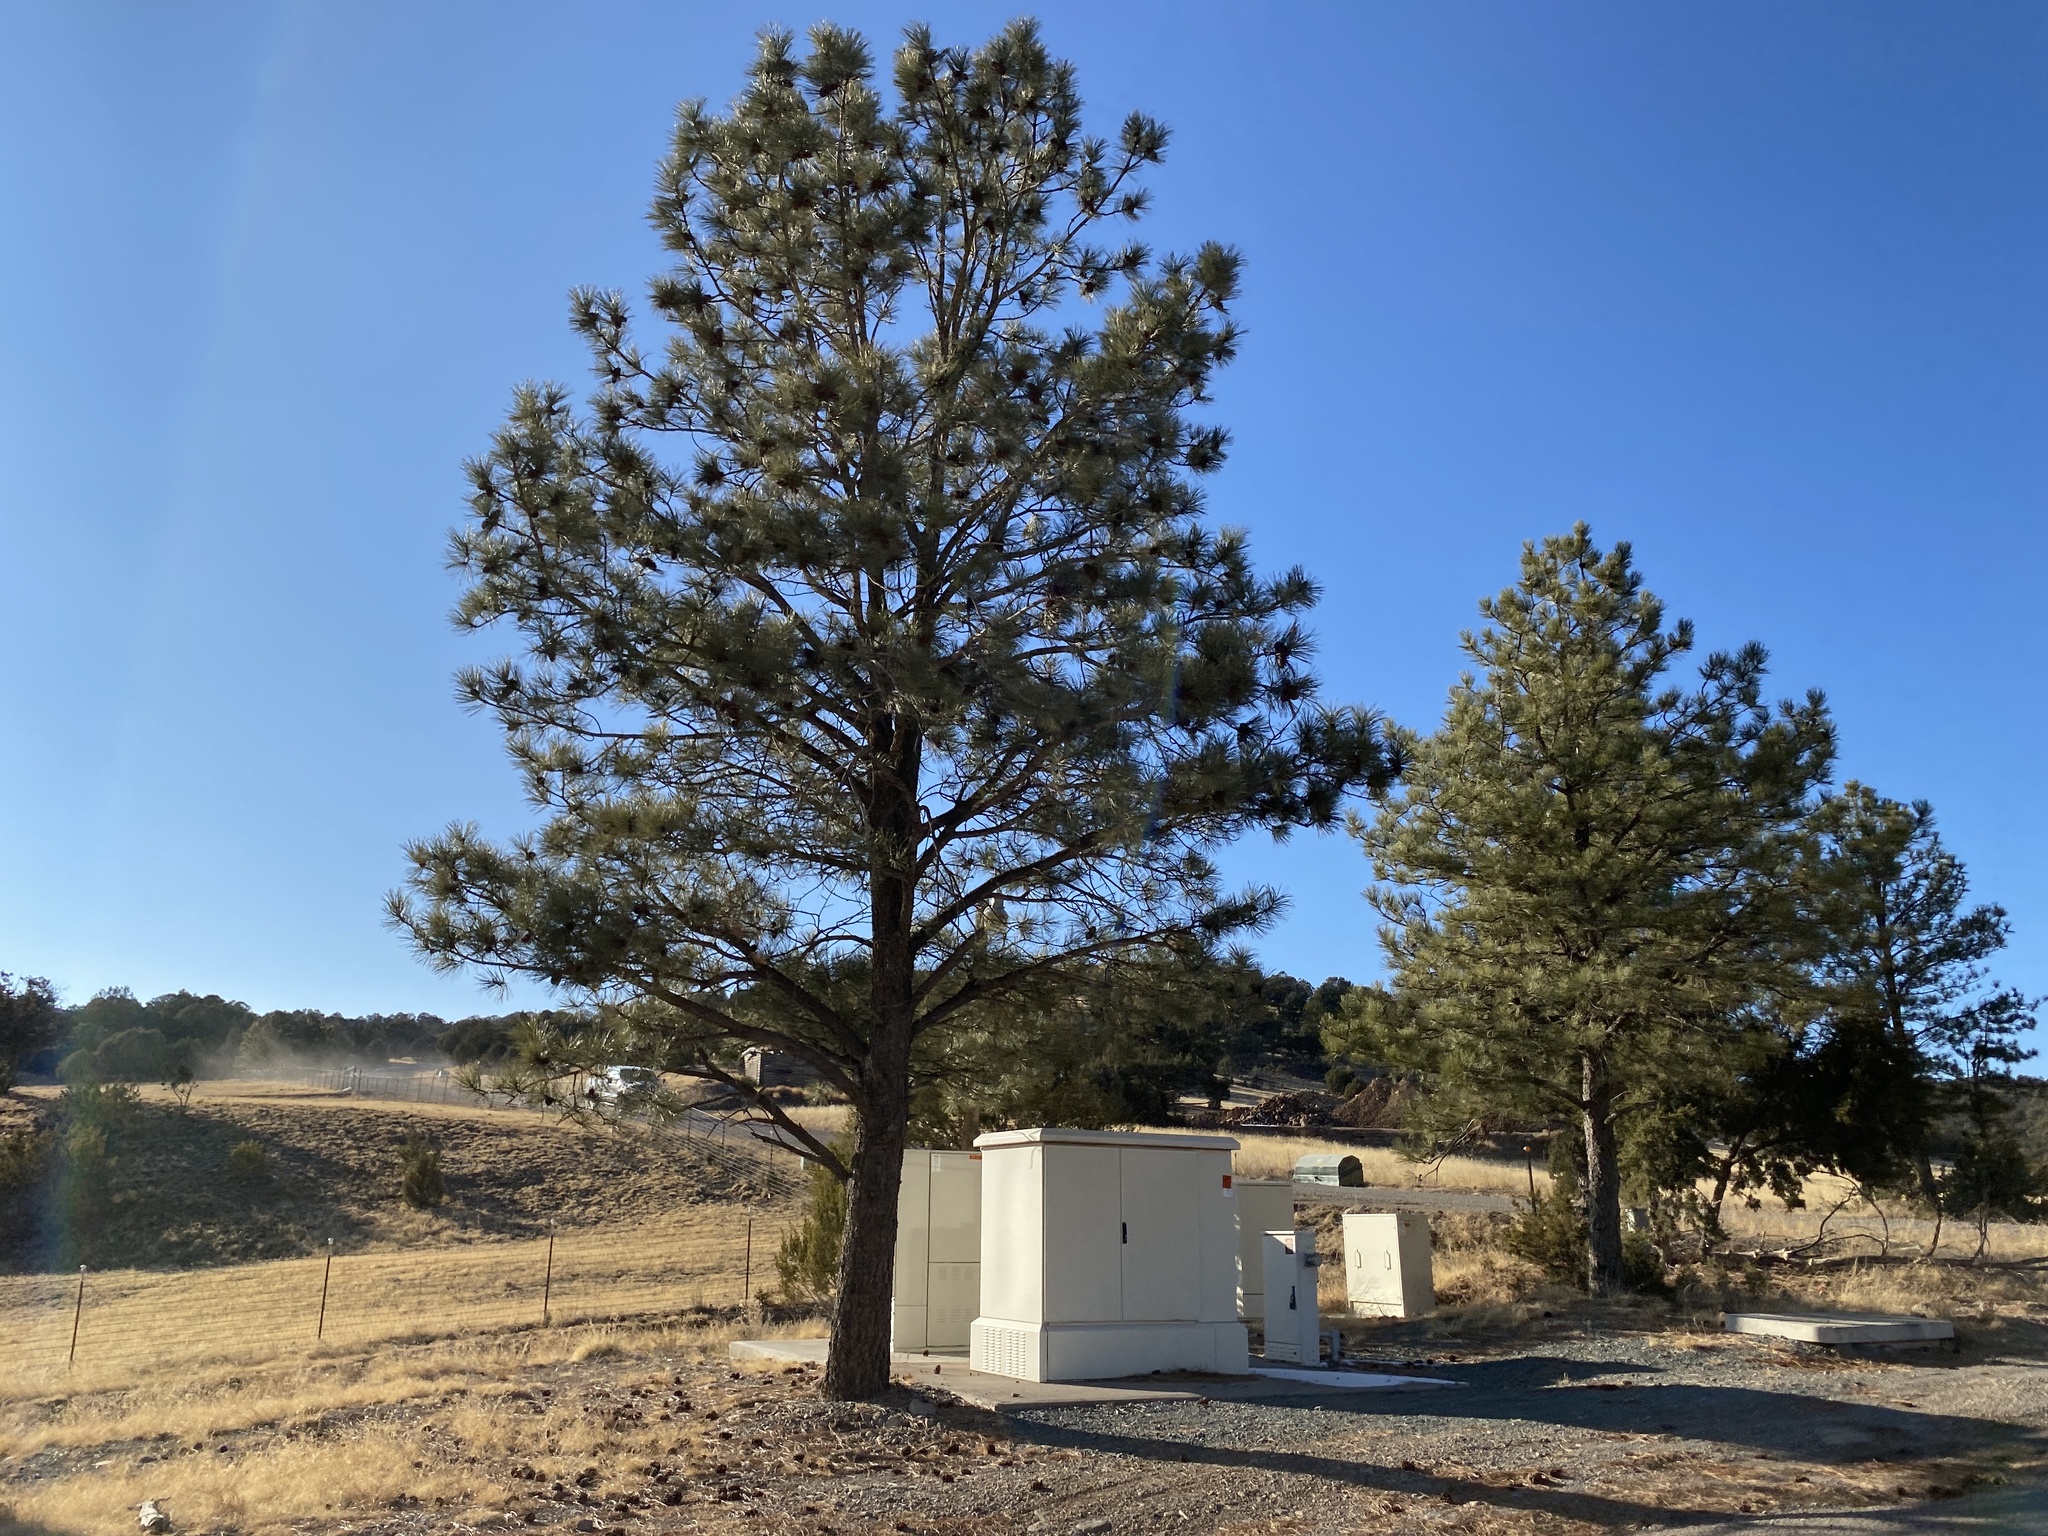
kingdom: Plantae
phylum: Tracheophyta
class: Pinopsida
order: Pinales
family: Pinaceae
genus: Pinus
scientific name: Pinus ponderosa
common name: Western yellow-pine
